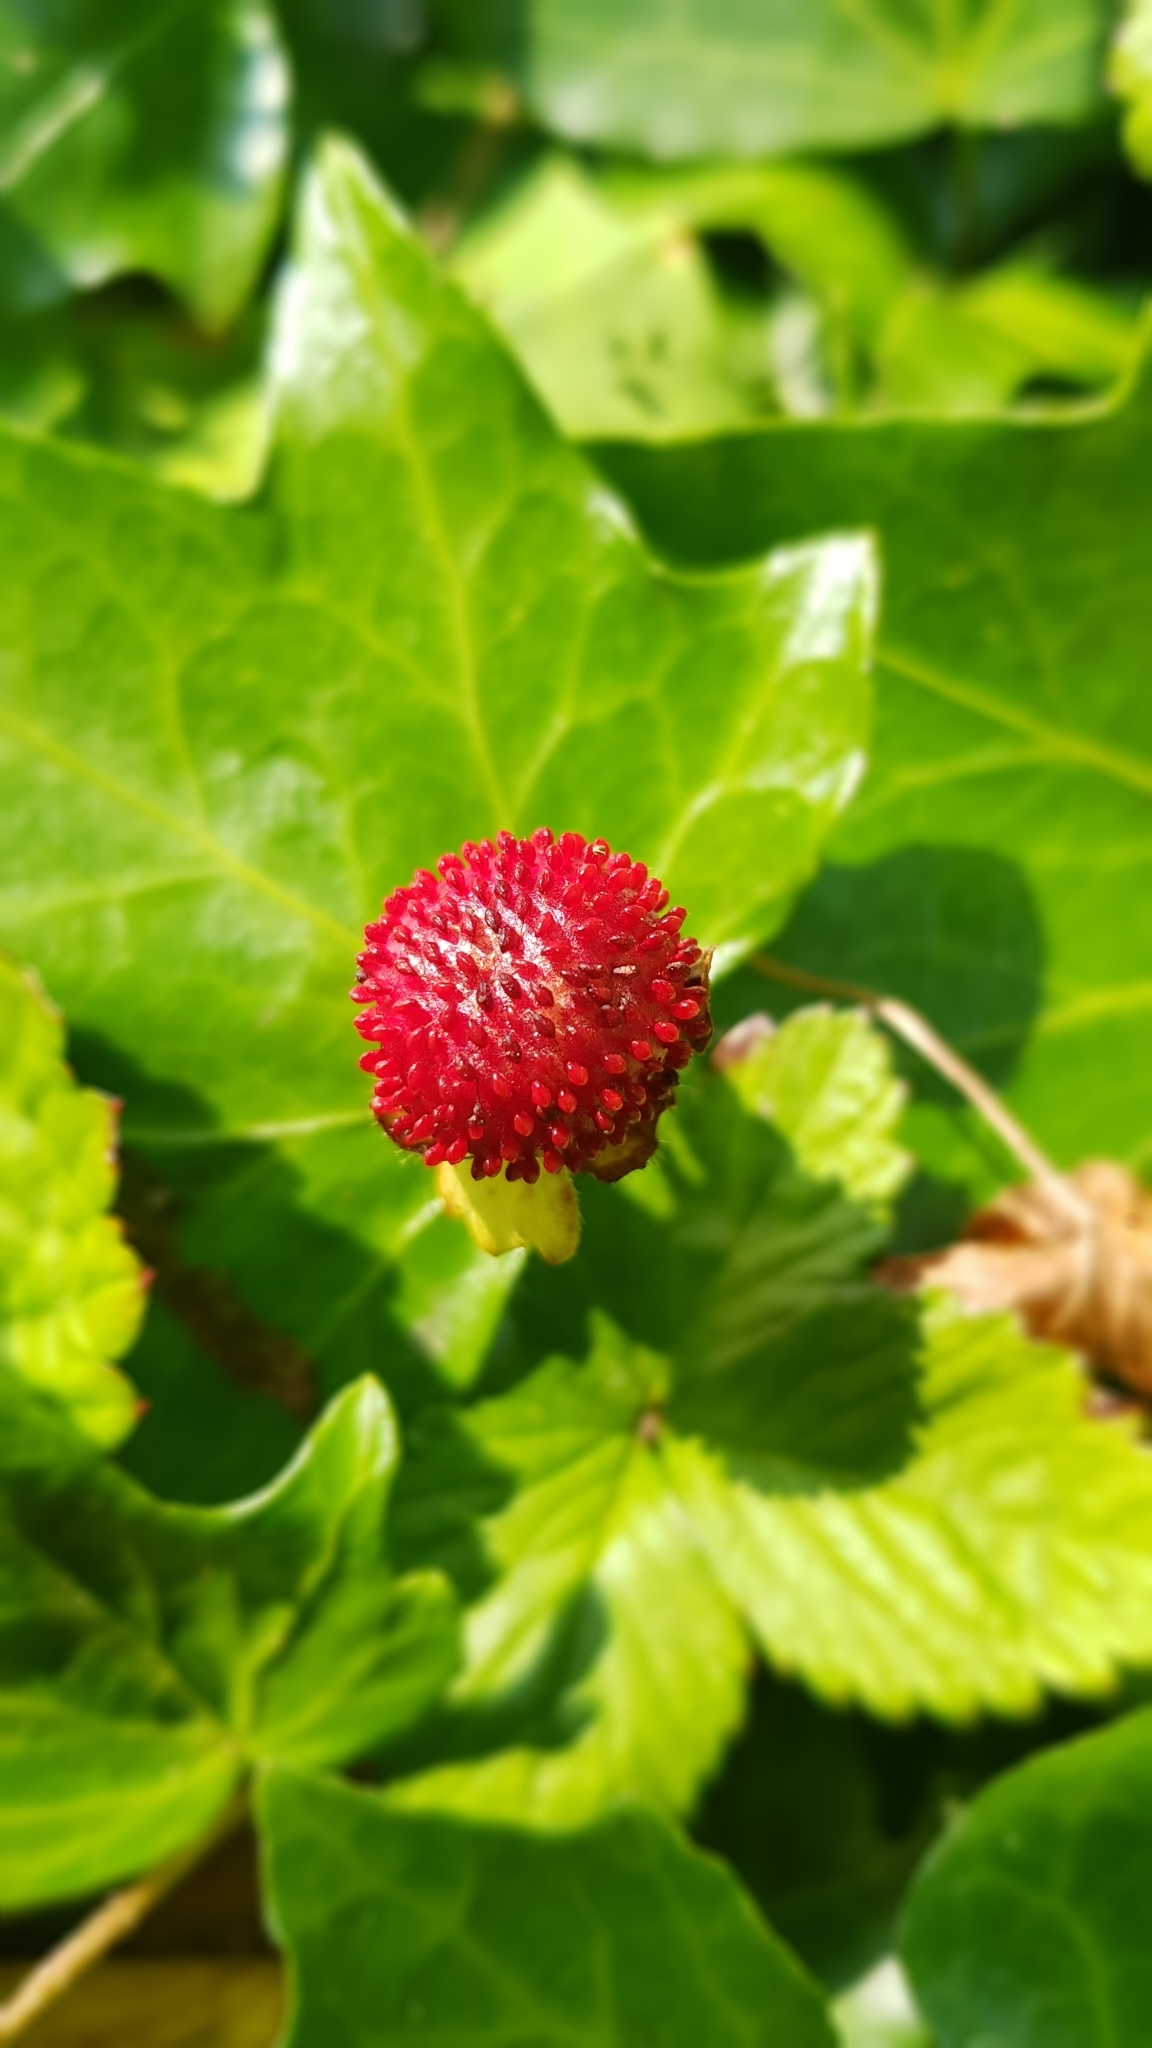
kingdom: Plantae
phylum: Tracheophyta
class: Magnoliopsida
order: Rosales
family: Rosaceae
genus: Potentilla
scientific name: Potentilla indica
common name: Yellow-flowered strawberry
